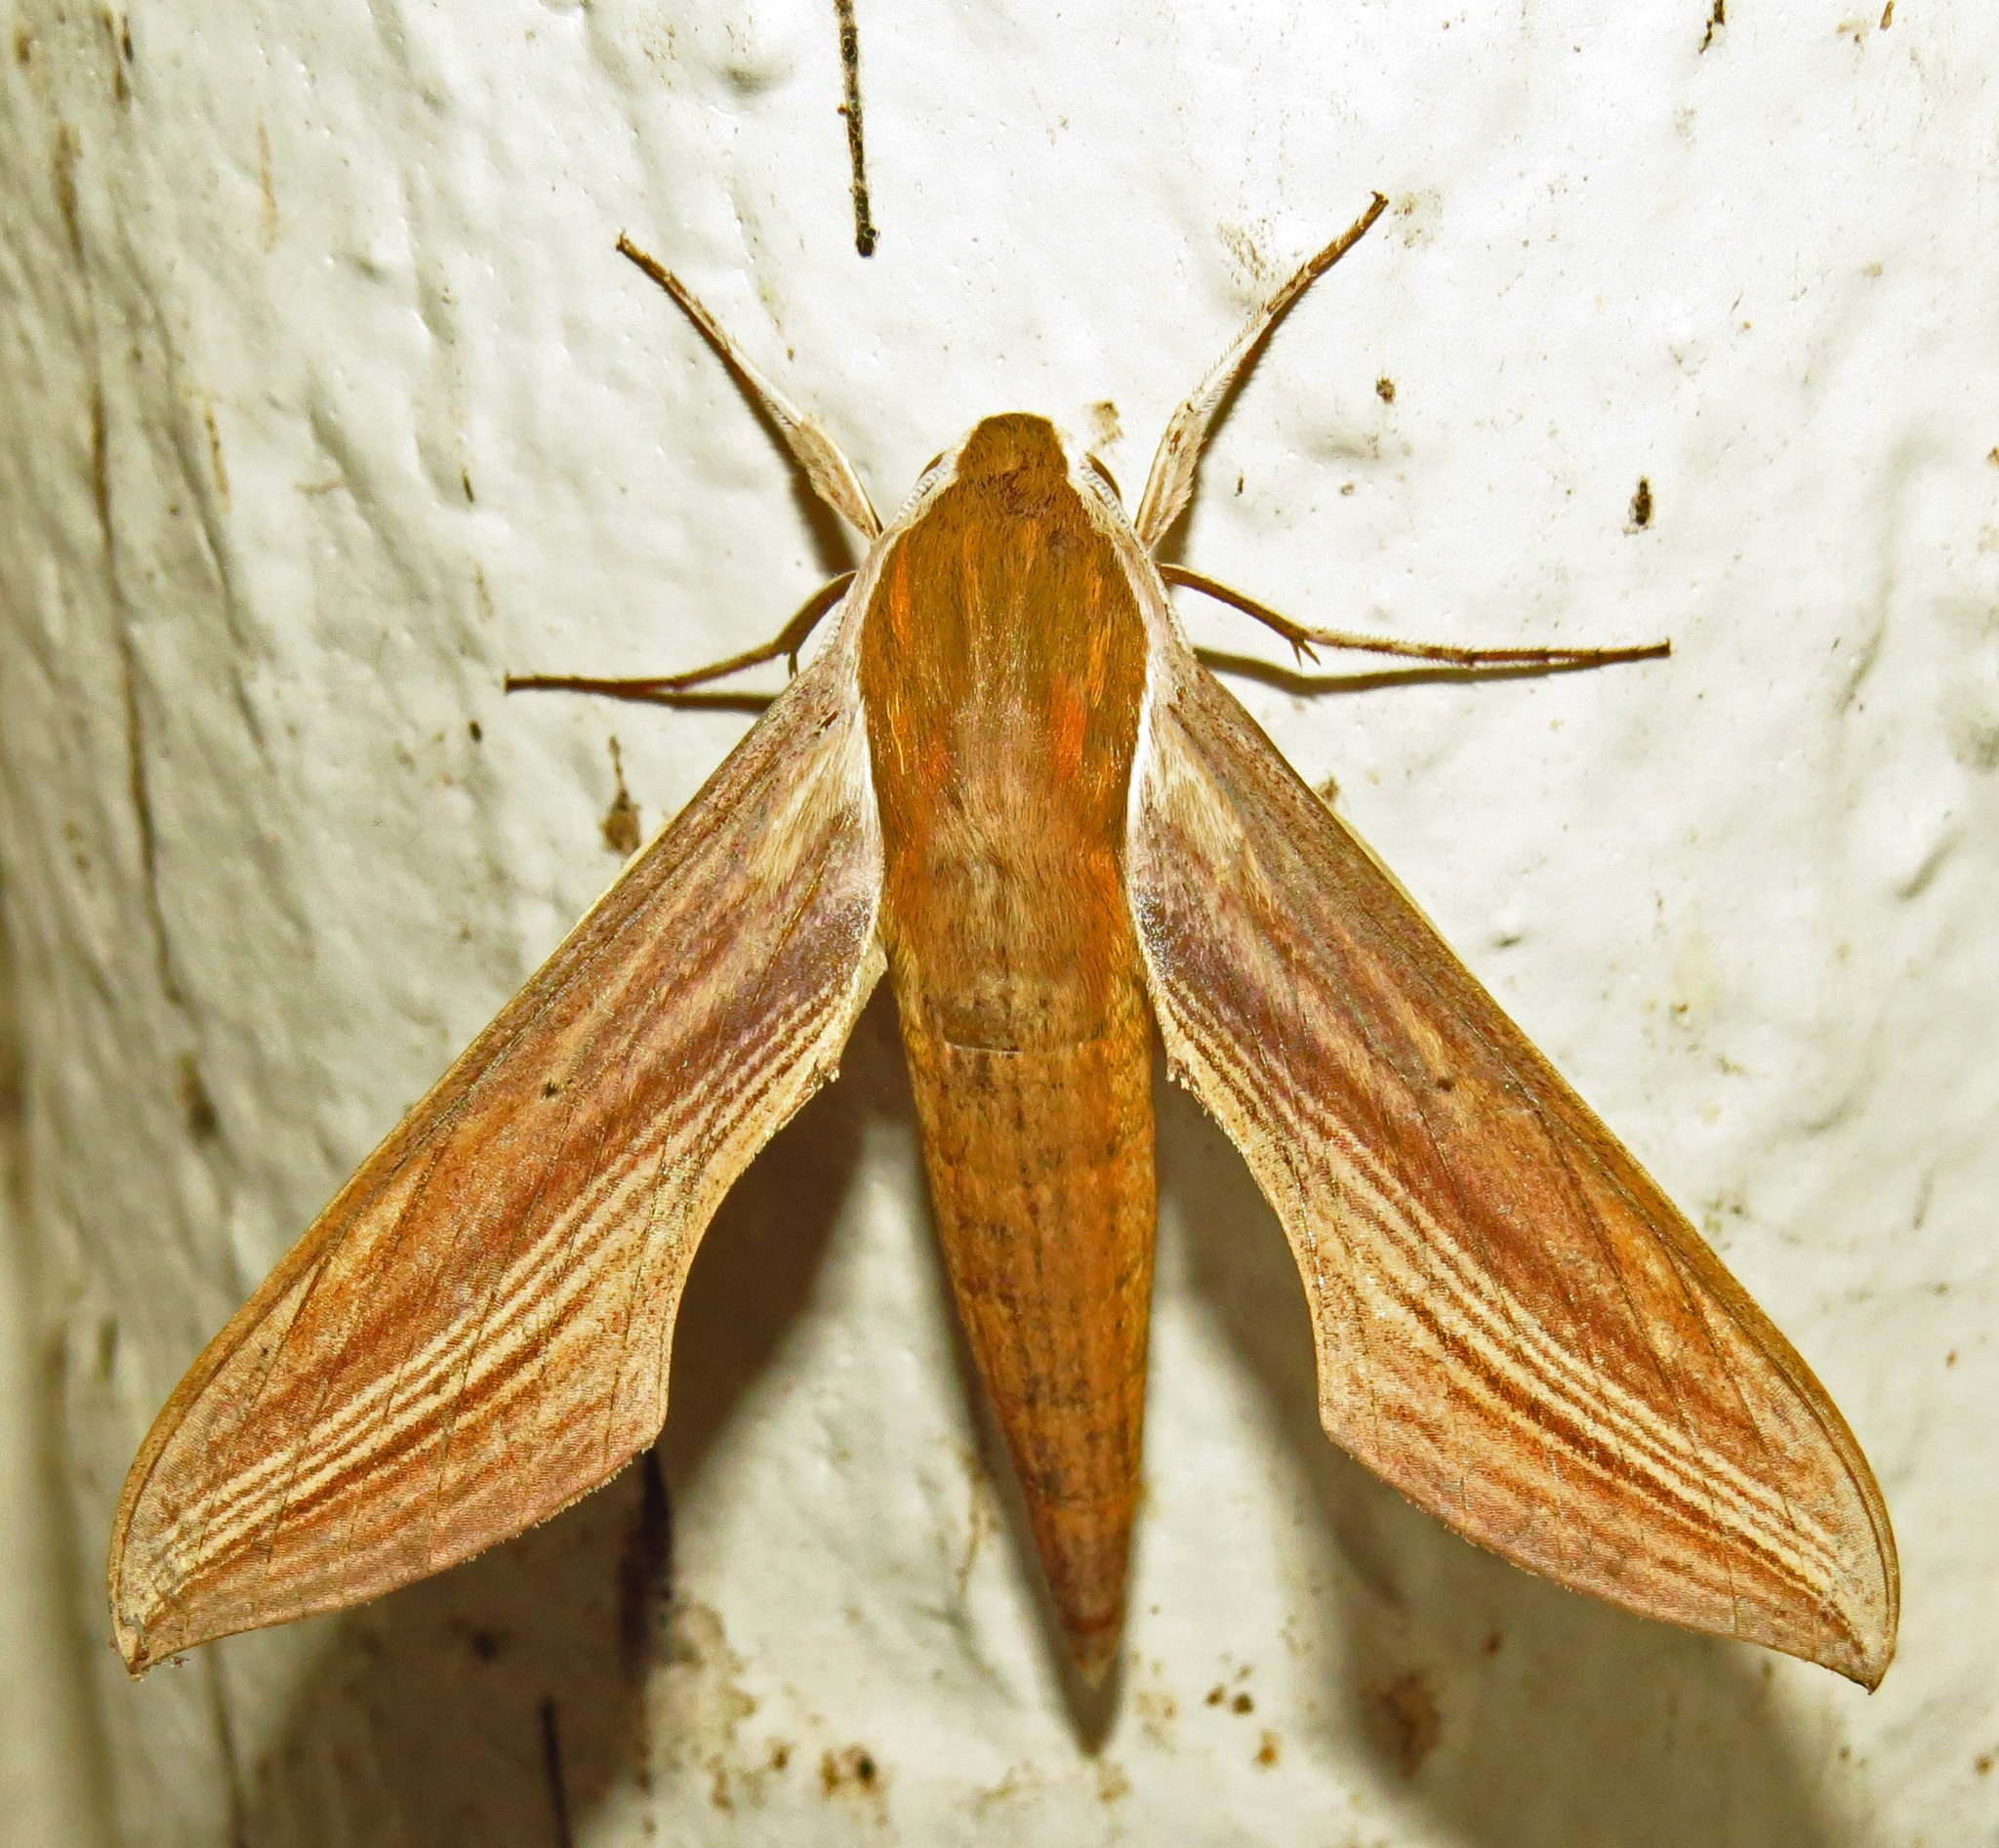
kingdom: Animalia
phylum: Arthropoda
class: Insecta
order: Lepidoptera
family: Sphingidae
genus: Xylophanes
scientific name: Xylophanes tersa
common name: Tersa sphinx
